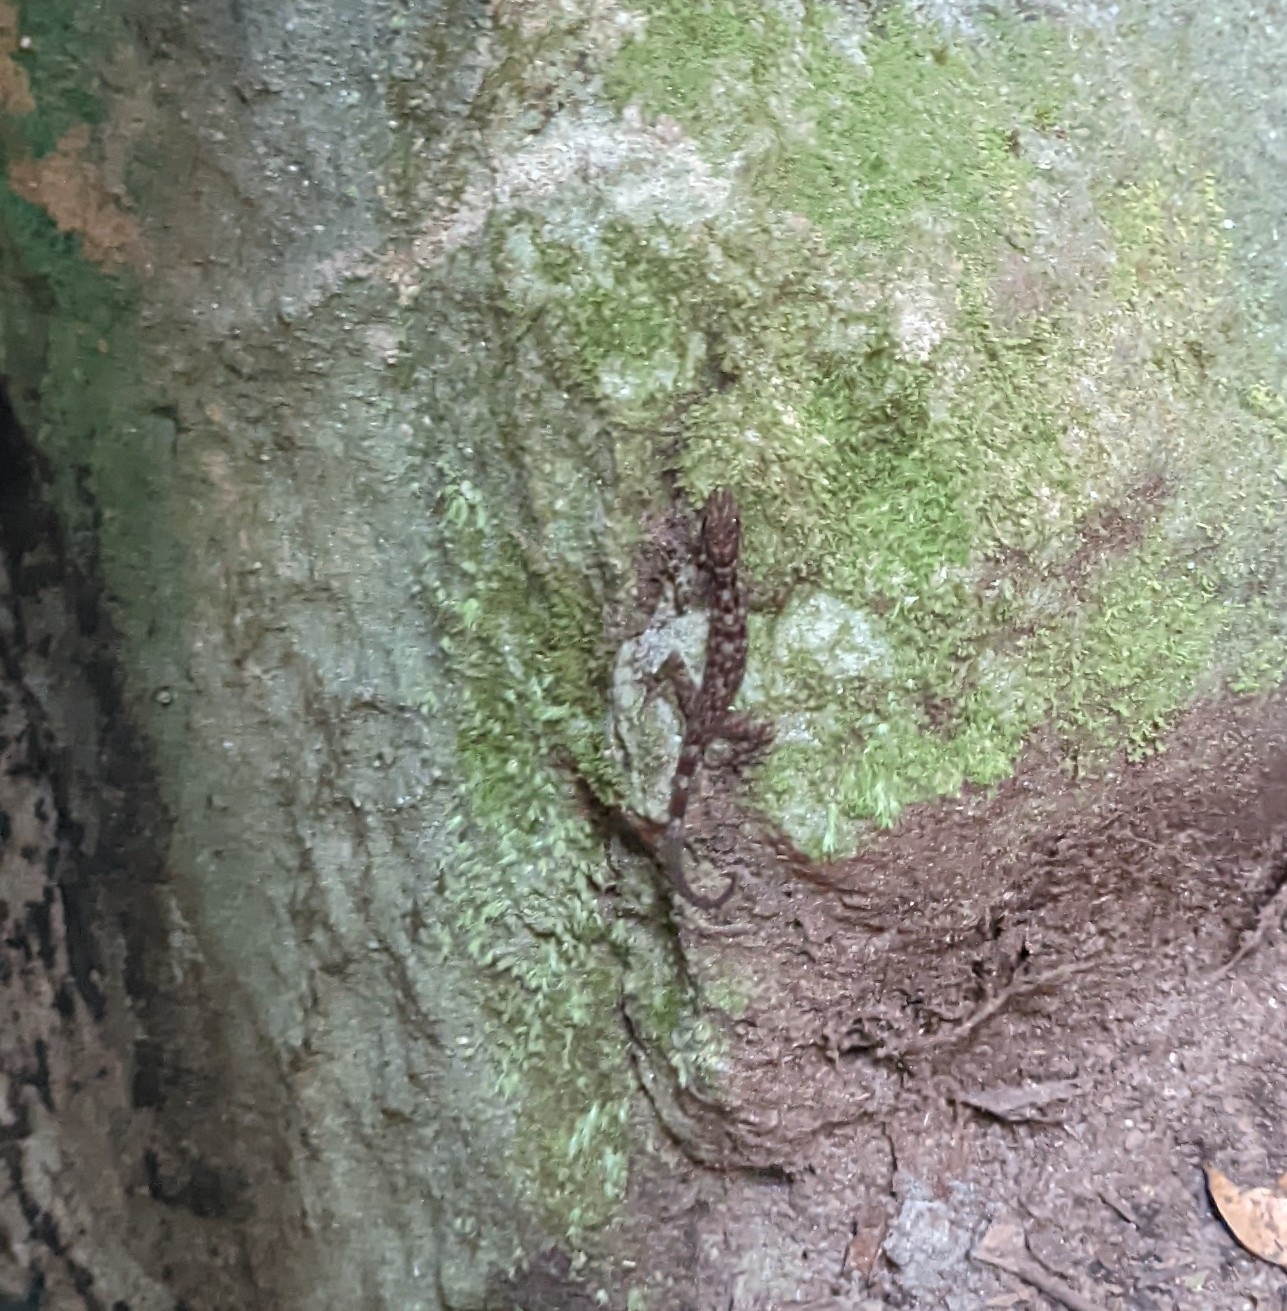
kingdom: Animalia
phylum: Chordata
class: Squamata
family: Gekkonidae
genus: Cnemaspis
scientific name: Cnemaspis kendallii
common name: Kendall's rock gecko
